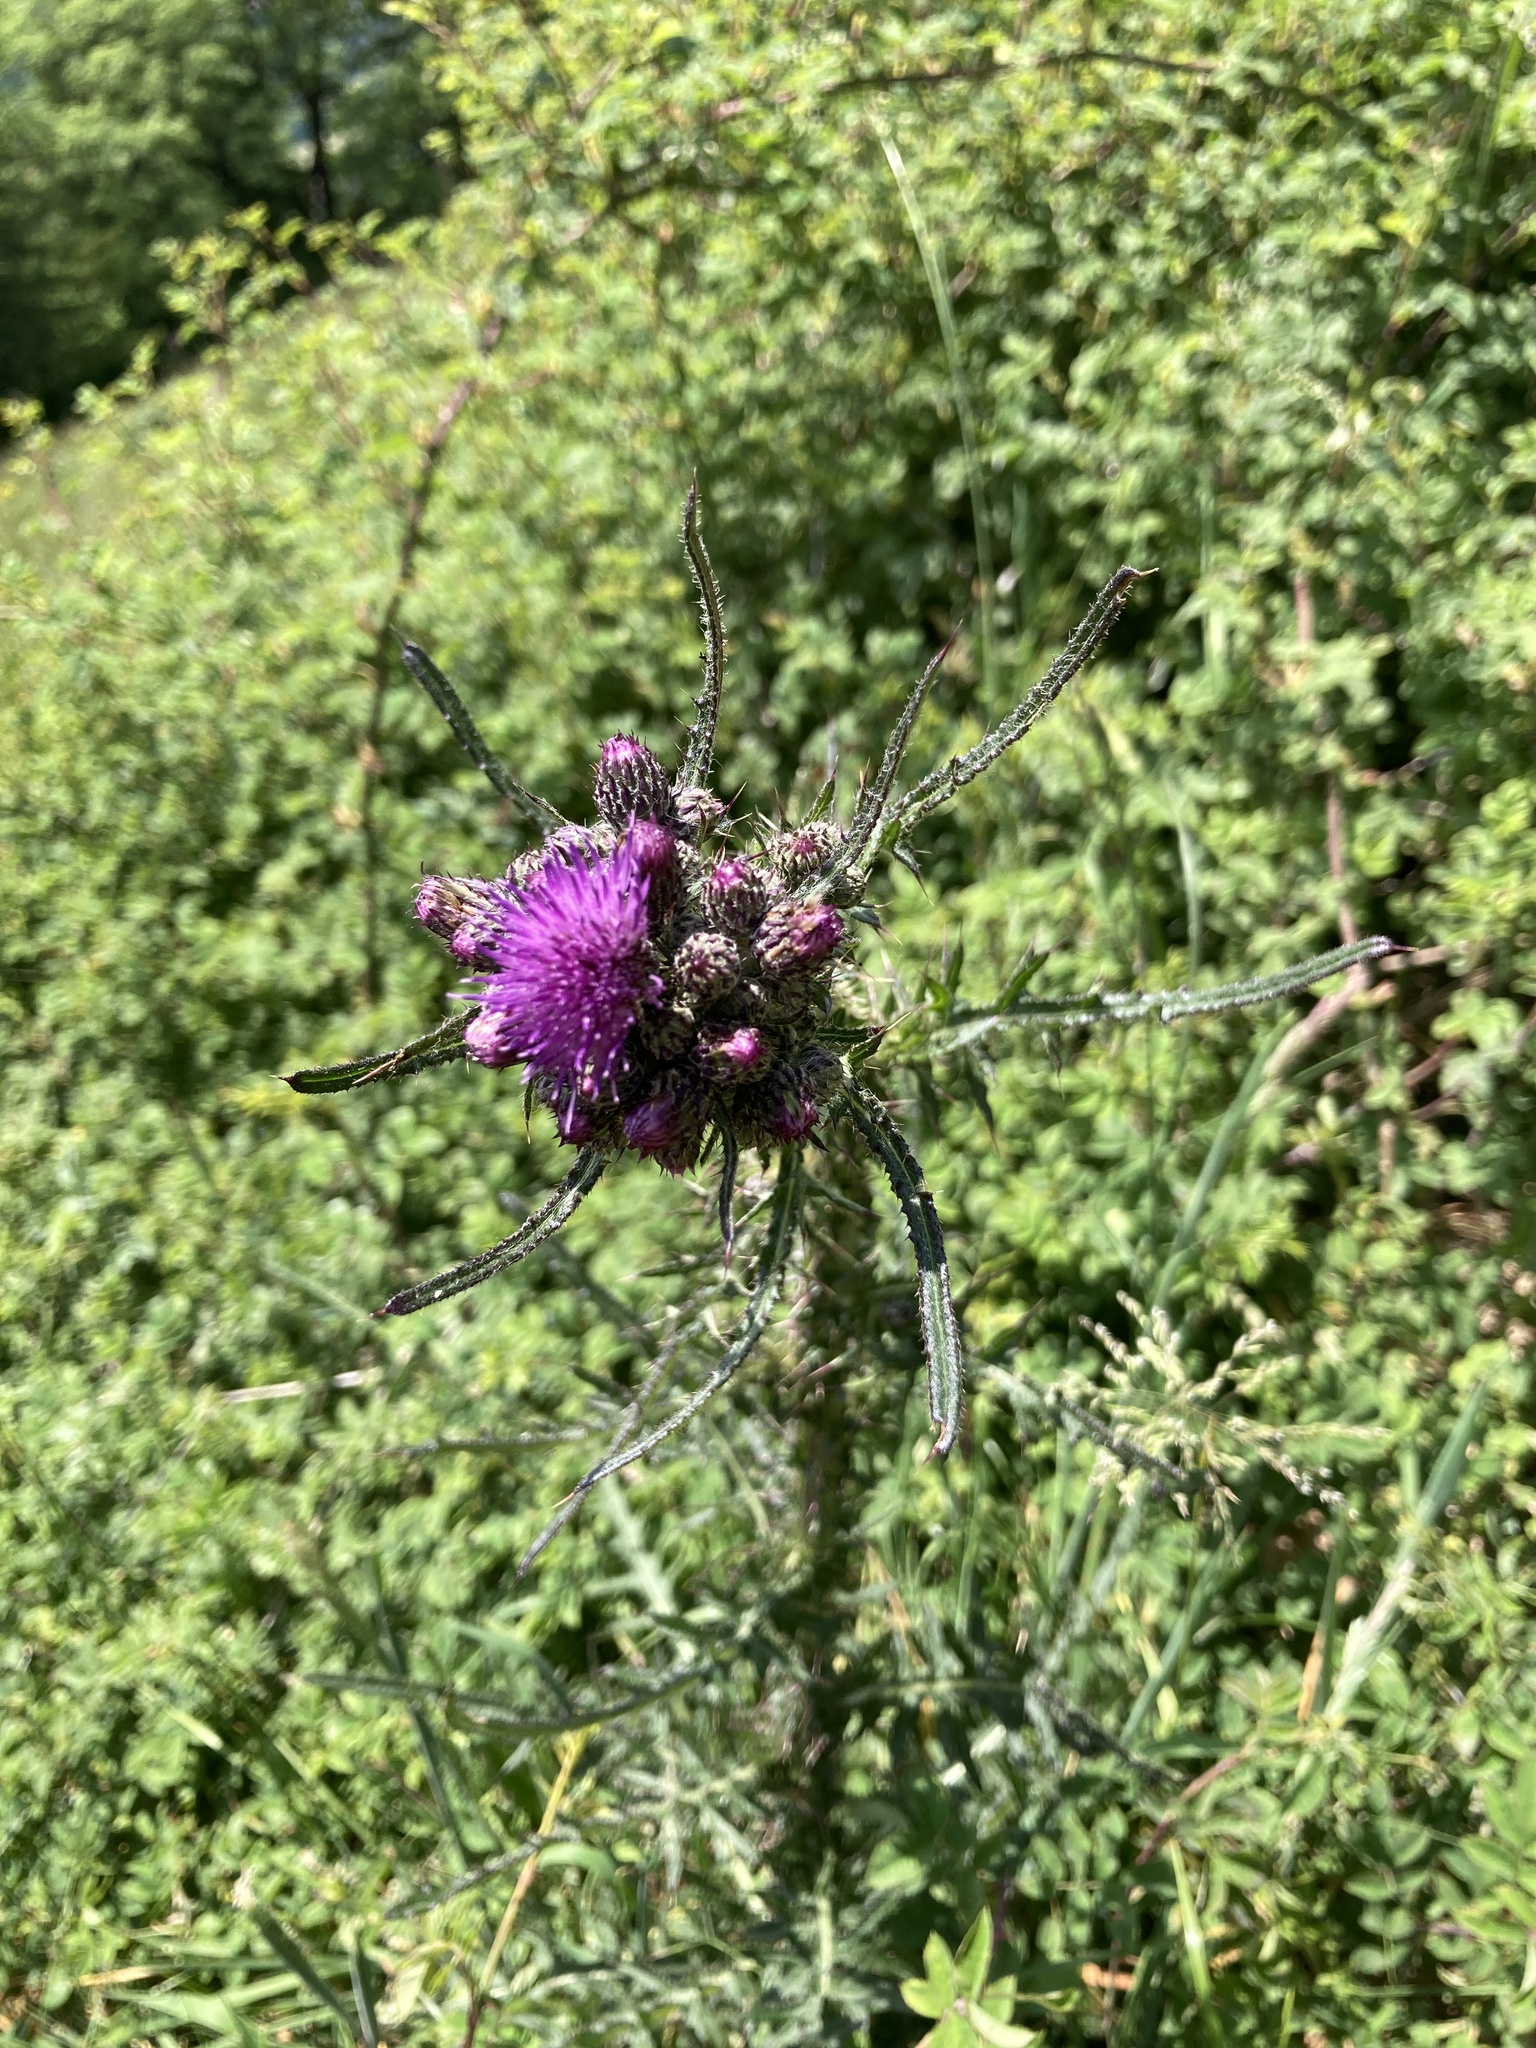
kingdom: Plantae
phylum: Tracheophyta
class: Magnoliopsida
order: Asterales
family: Asteraceae
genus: Cirsium
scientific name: Cirsium palustre
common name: Marsh thistle
